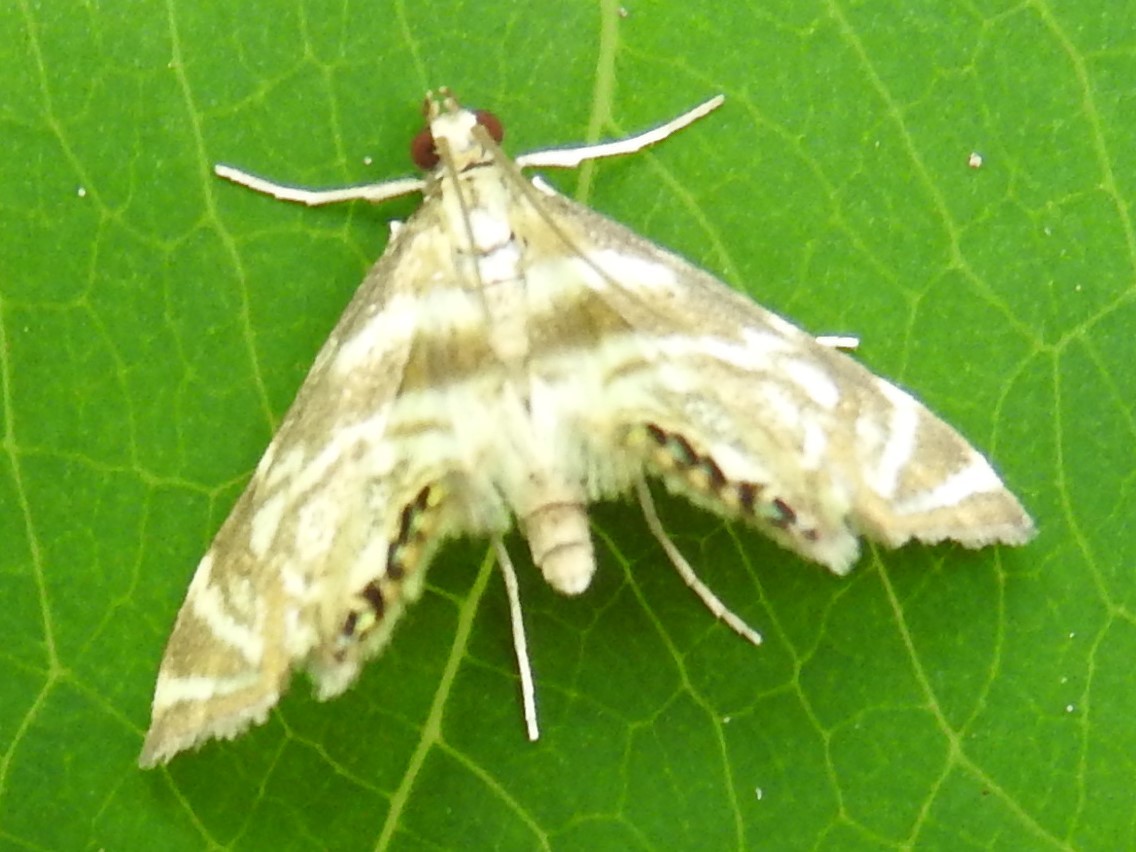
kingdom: Animalia
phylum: Arthropoda
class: Insecta
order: Lepidoptera
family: Crambidae
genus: Petrophila
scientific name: Petrophila canadensis
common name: Canadian petrophila
